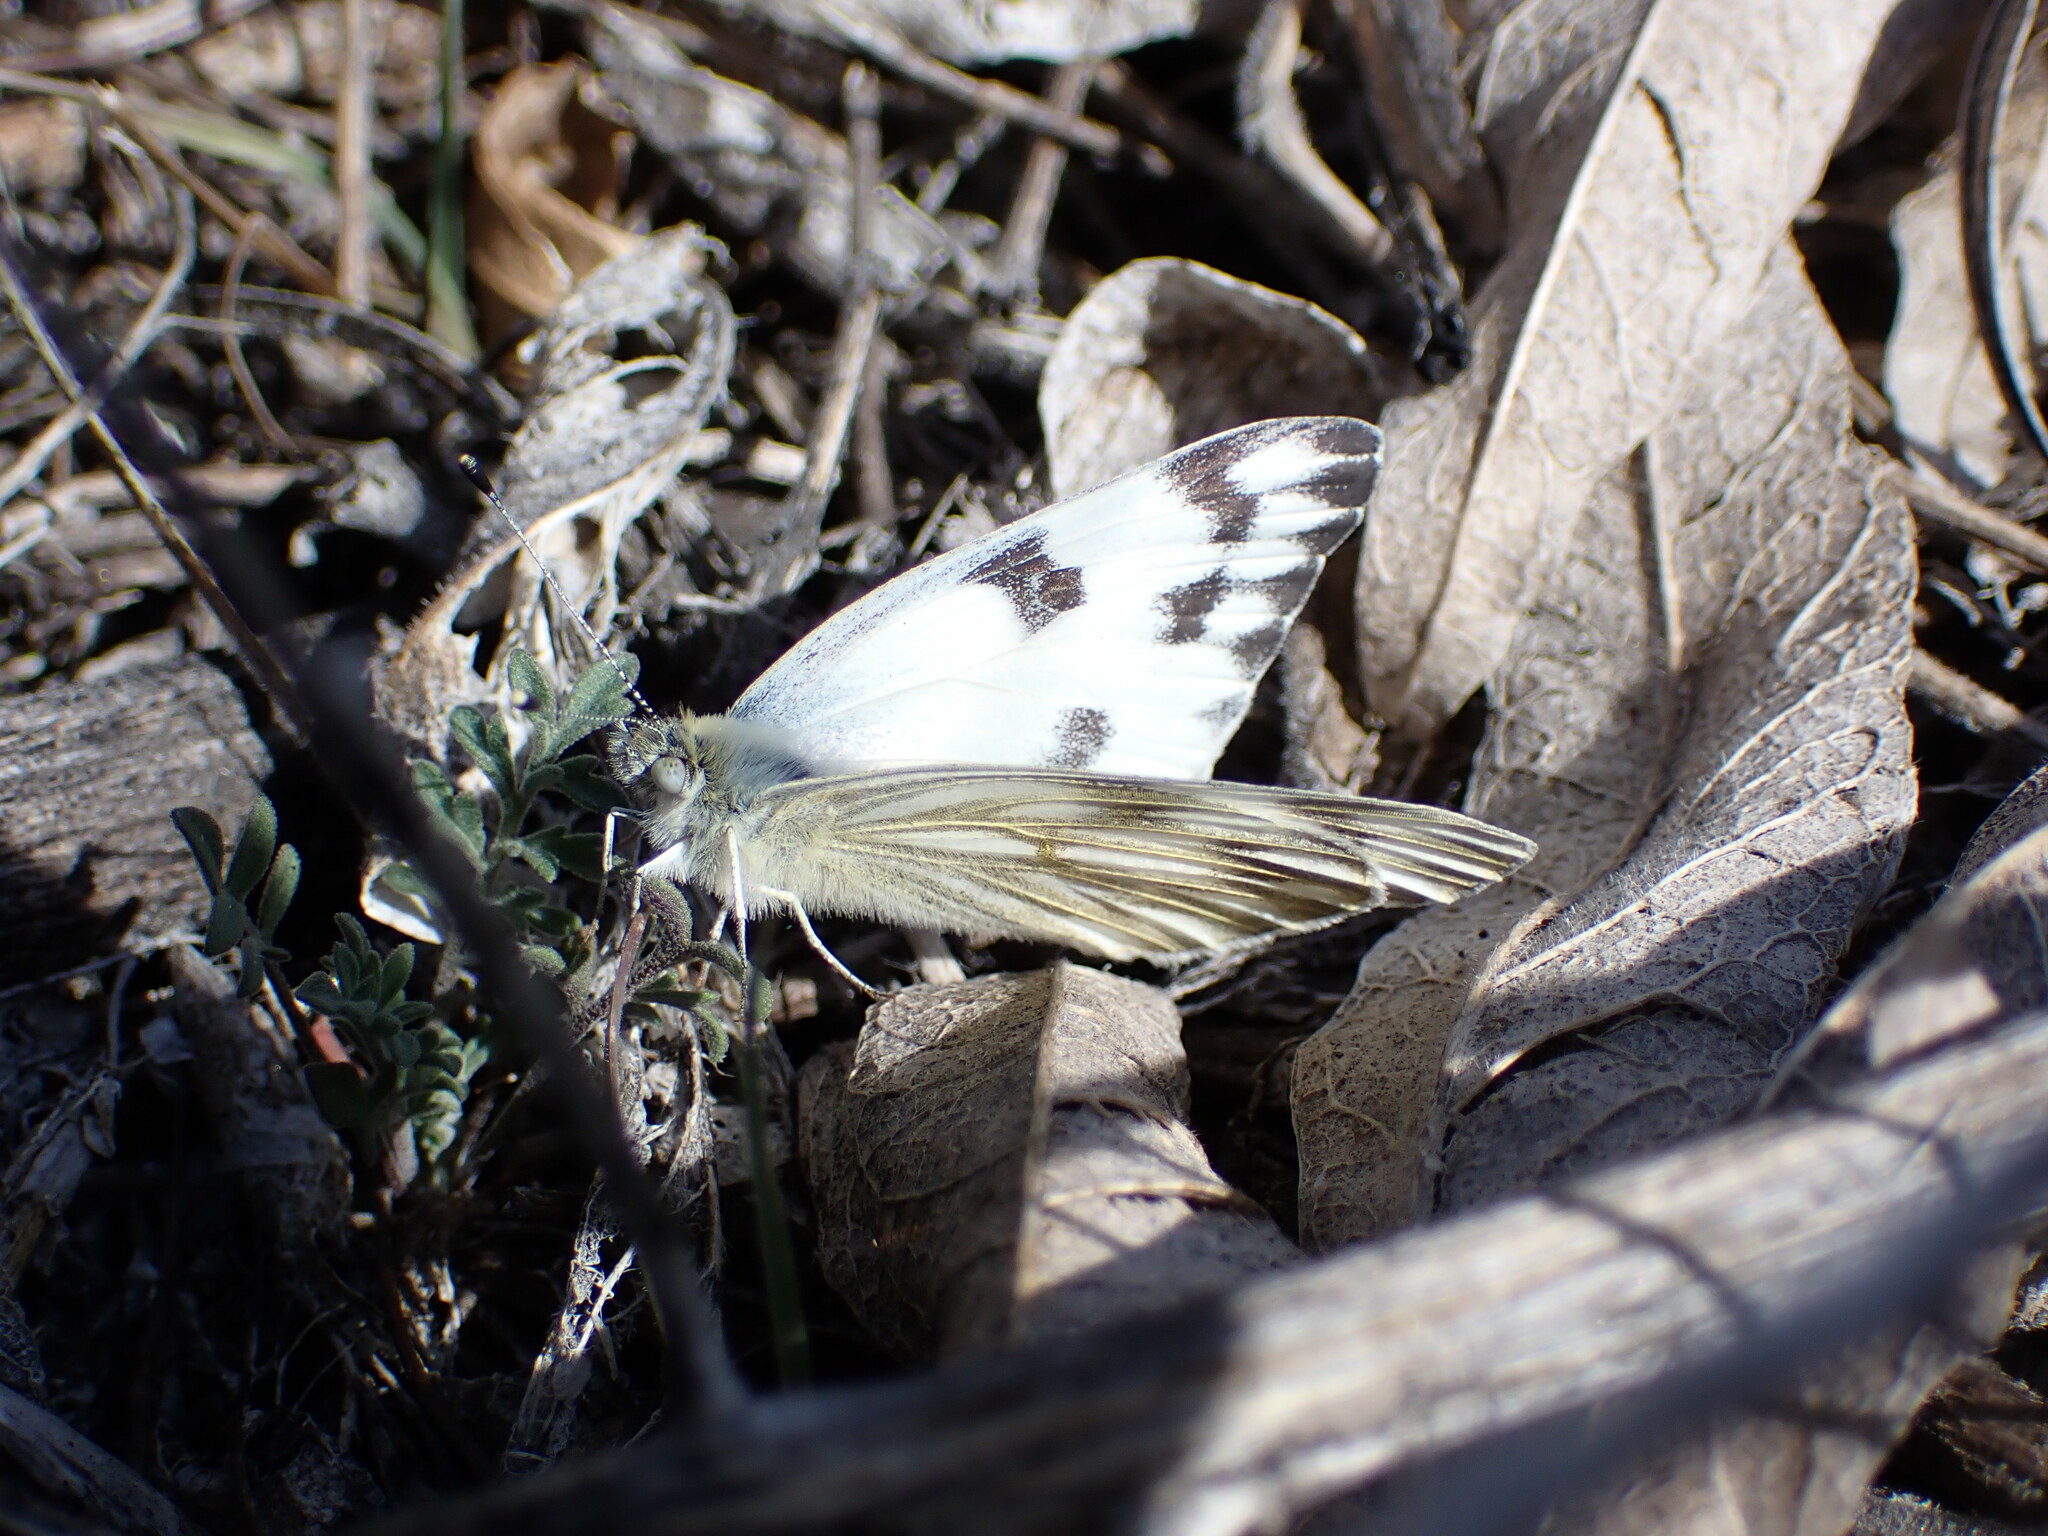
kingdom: Animalia
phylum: Arthropoda
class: Insecta
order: Lepidoptera
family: Pieridae
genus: Pontia
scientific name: Pontia protodice
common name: Checkered white
